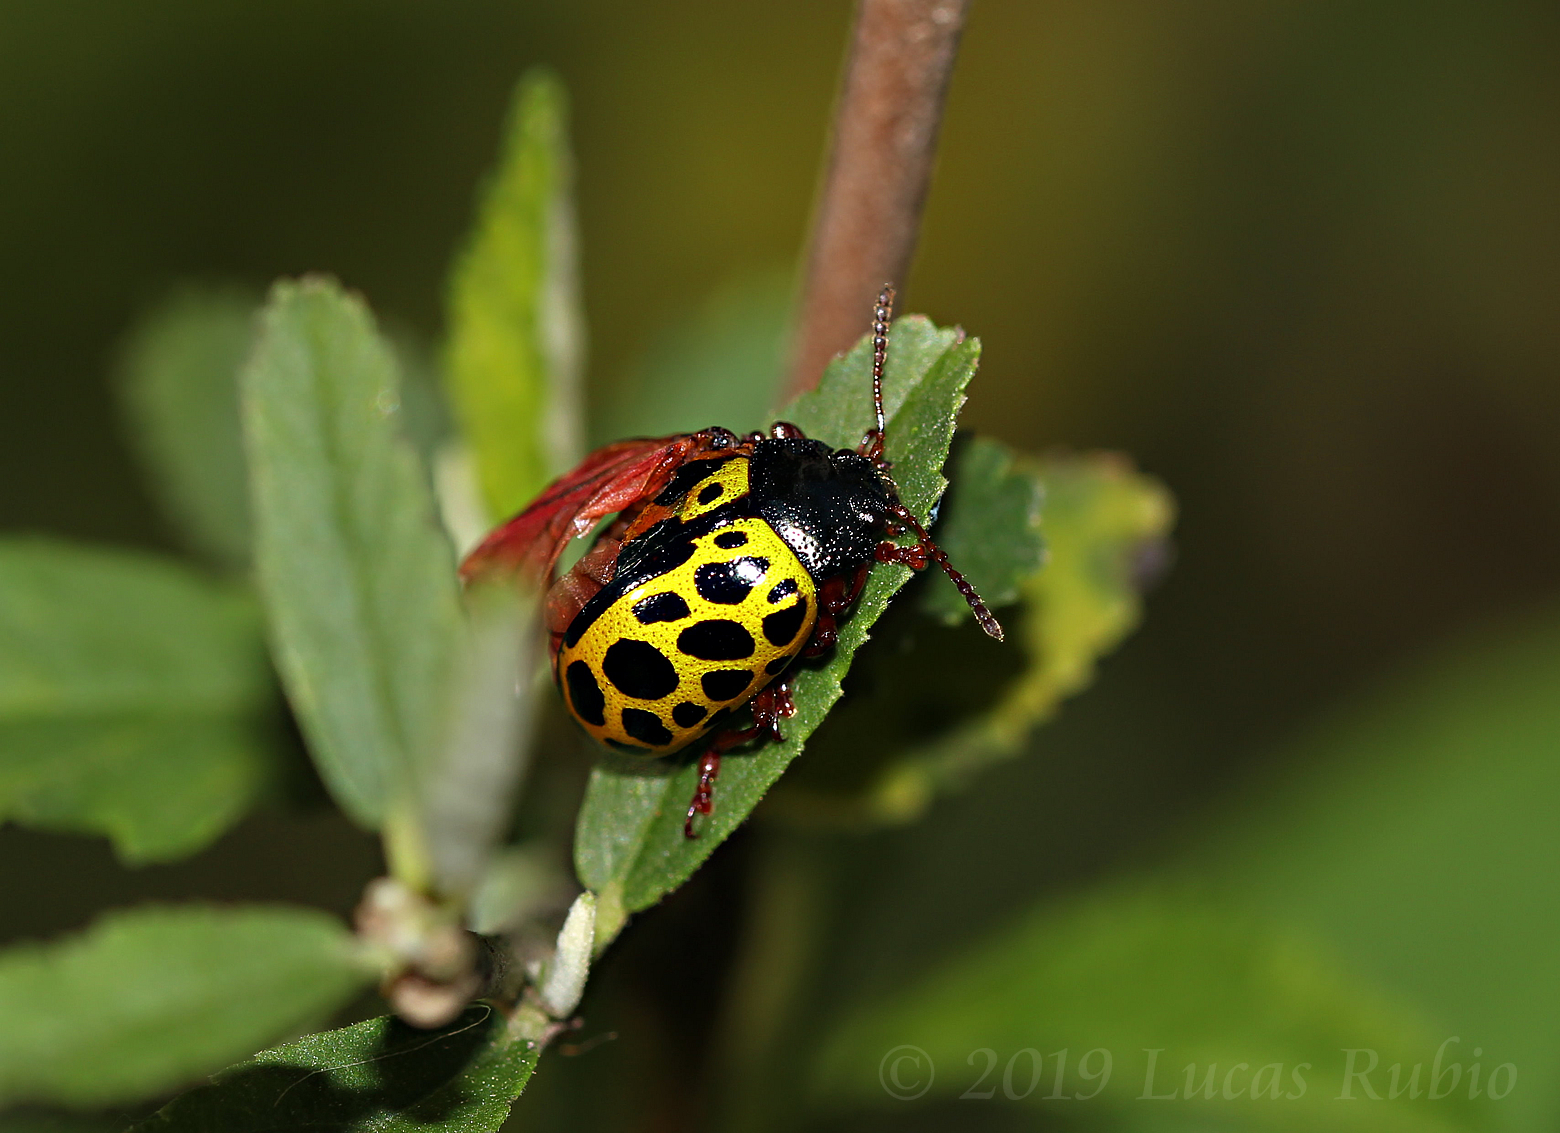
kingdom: Animalia
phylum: Arthropoda
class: Insecta
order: Coleoptera
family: Chrysomelidae
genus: Calligrapha
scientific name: Calligrapha polyspila
